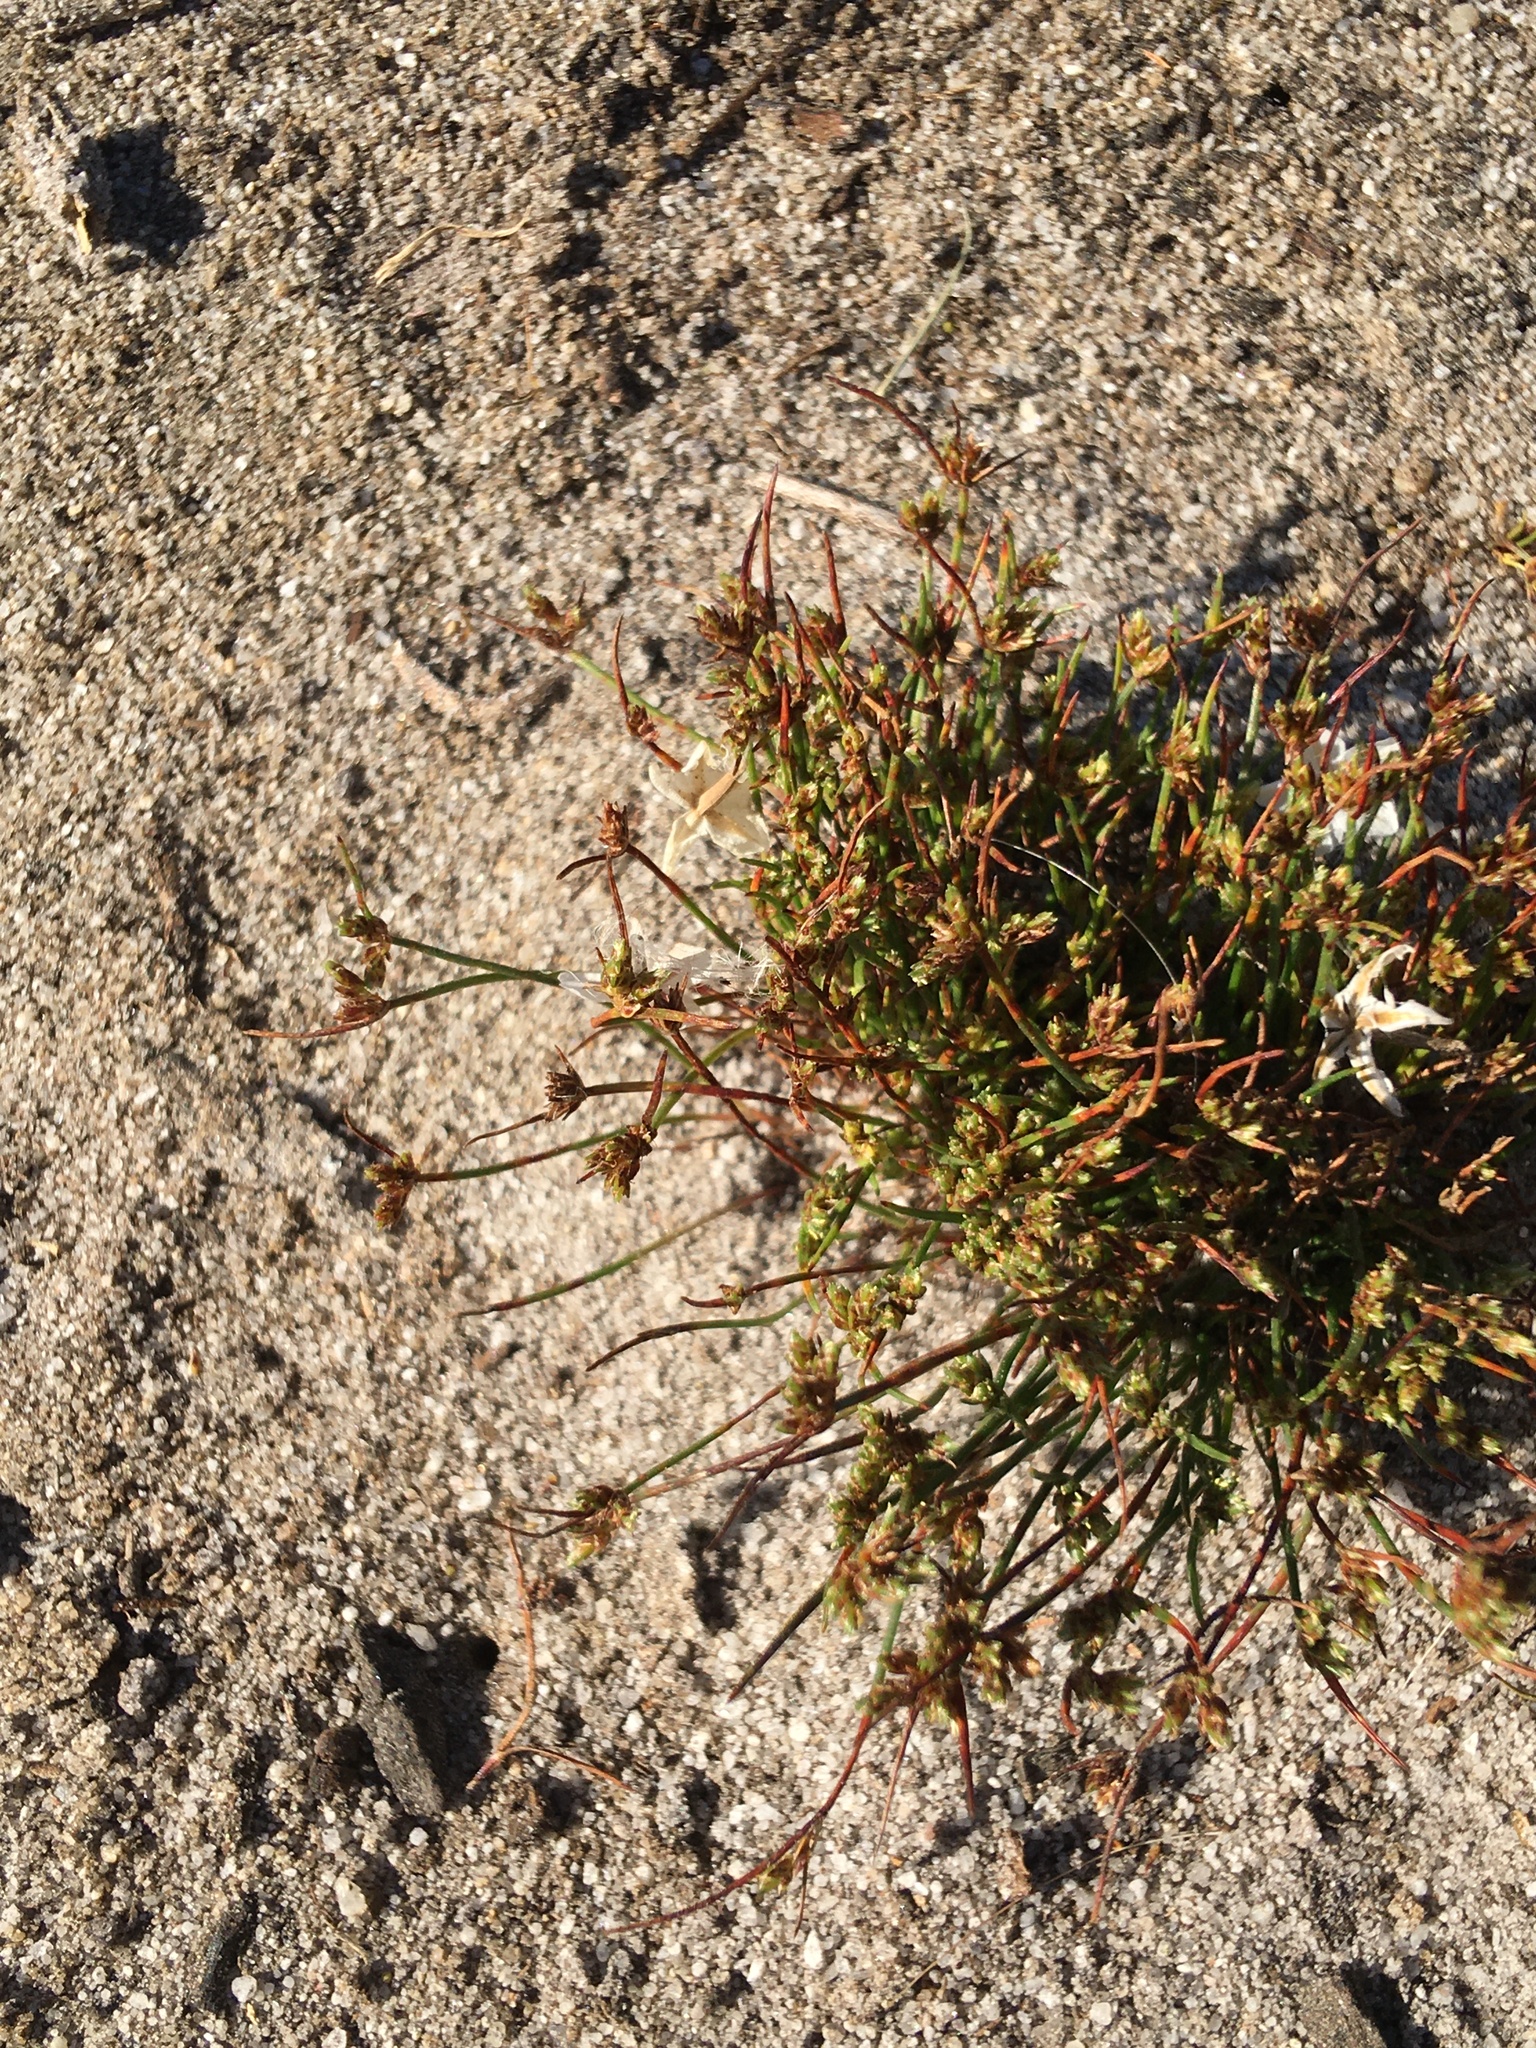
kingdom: Plantae
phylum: Tracheophyta
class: Liliopsida
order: Poales
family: Cyperaceae
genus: Isolepis
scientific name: Isolepis marginata
